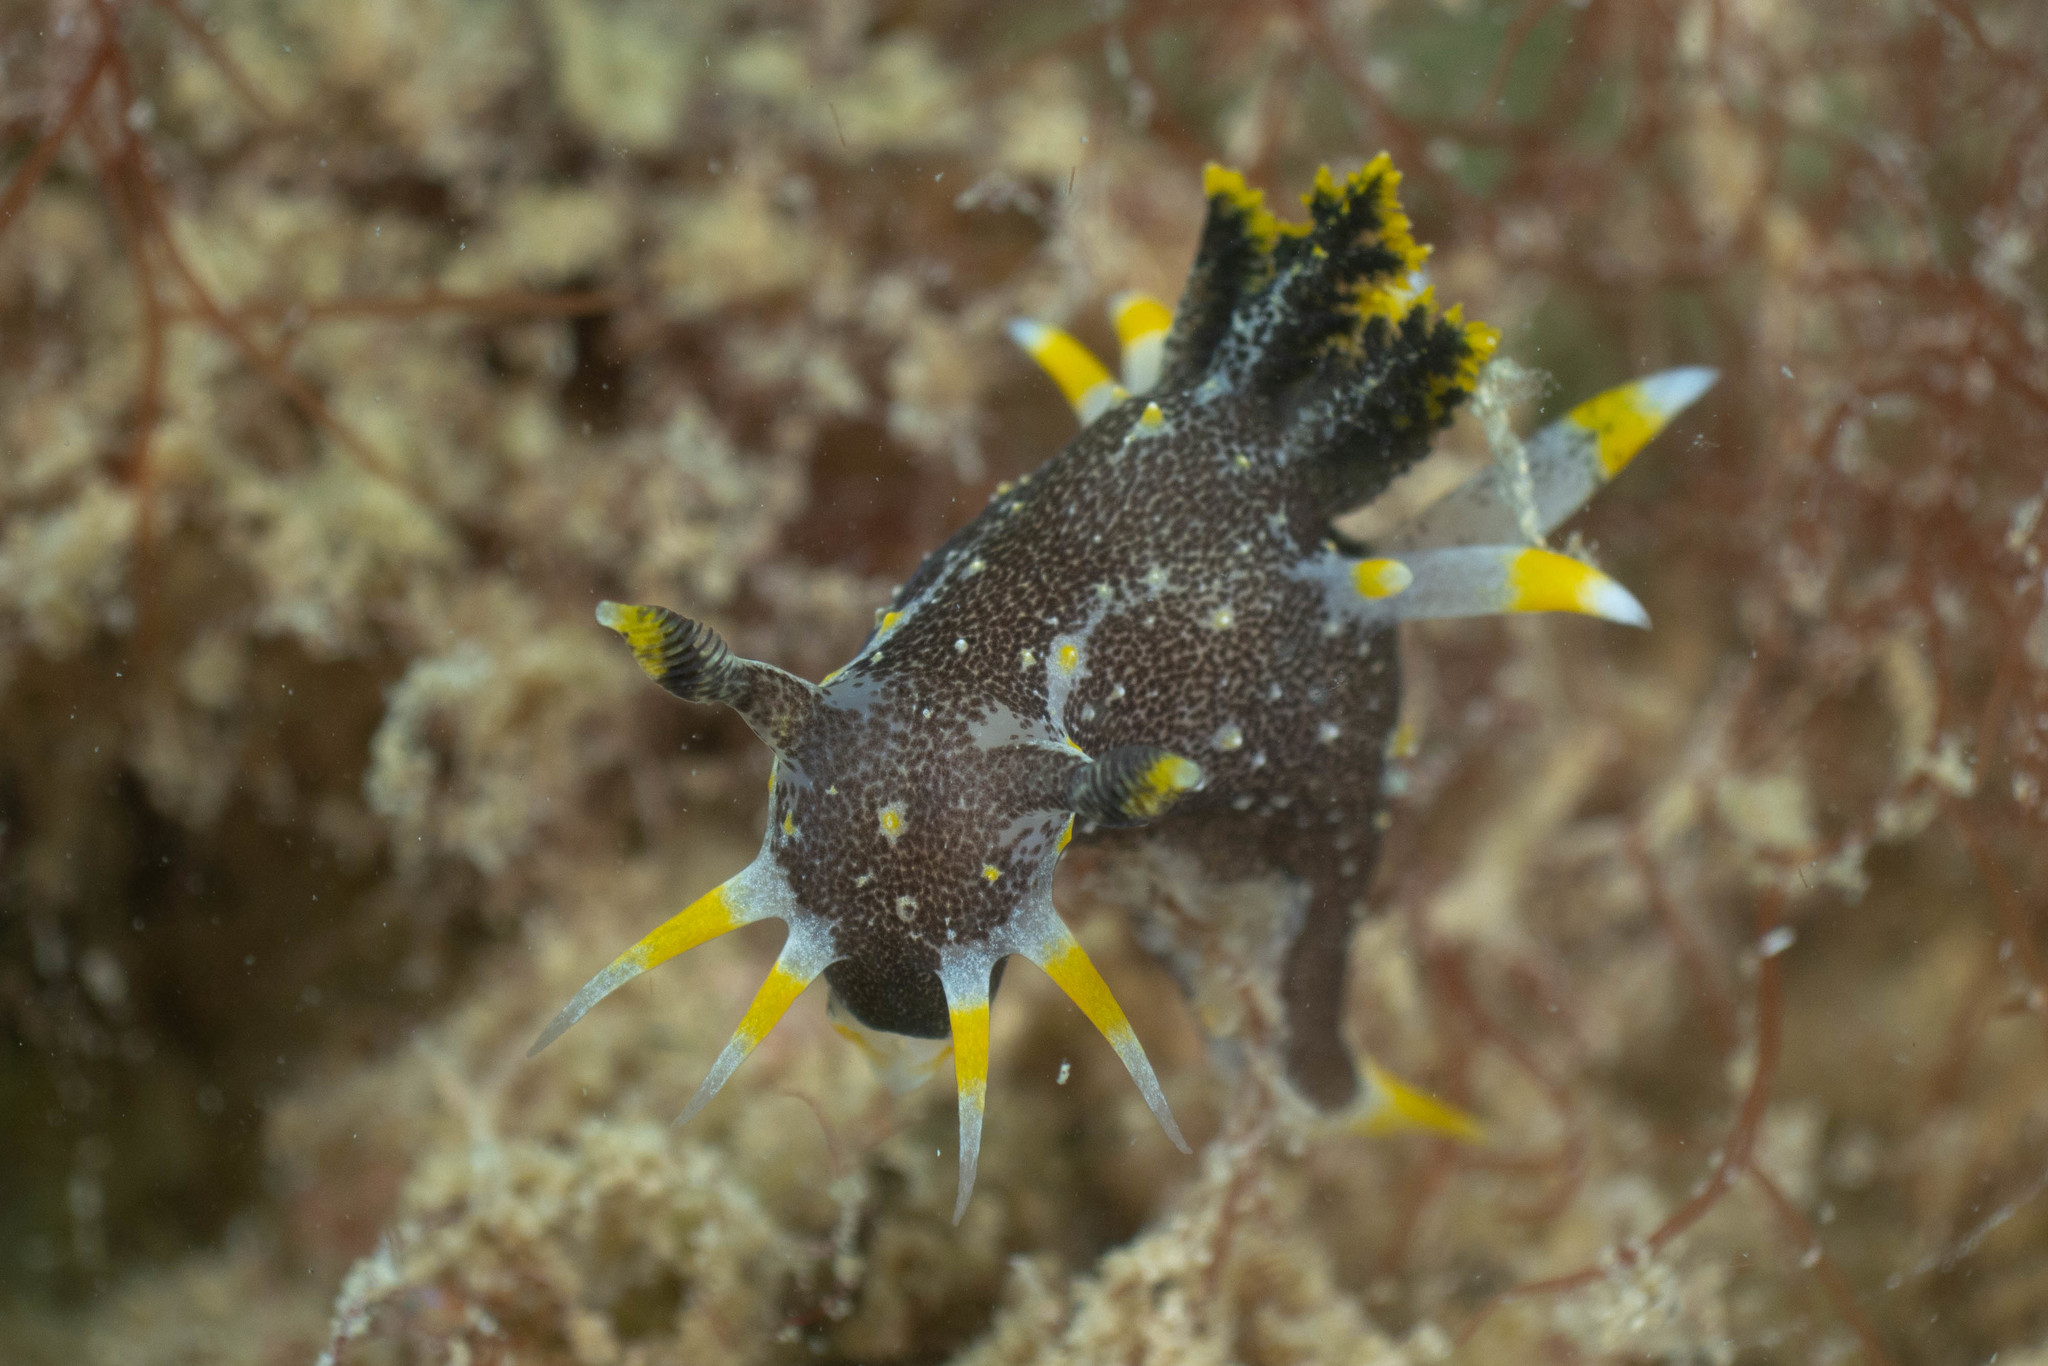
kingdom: Animalia
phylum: Mollusca
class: Gastropoda
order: Nudibranchia
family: Polyceridae
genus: Polycera
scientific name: Polycera hedgpethi
